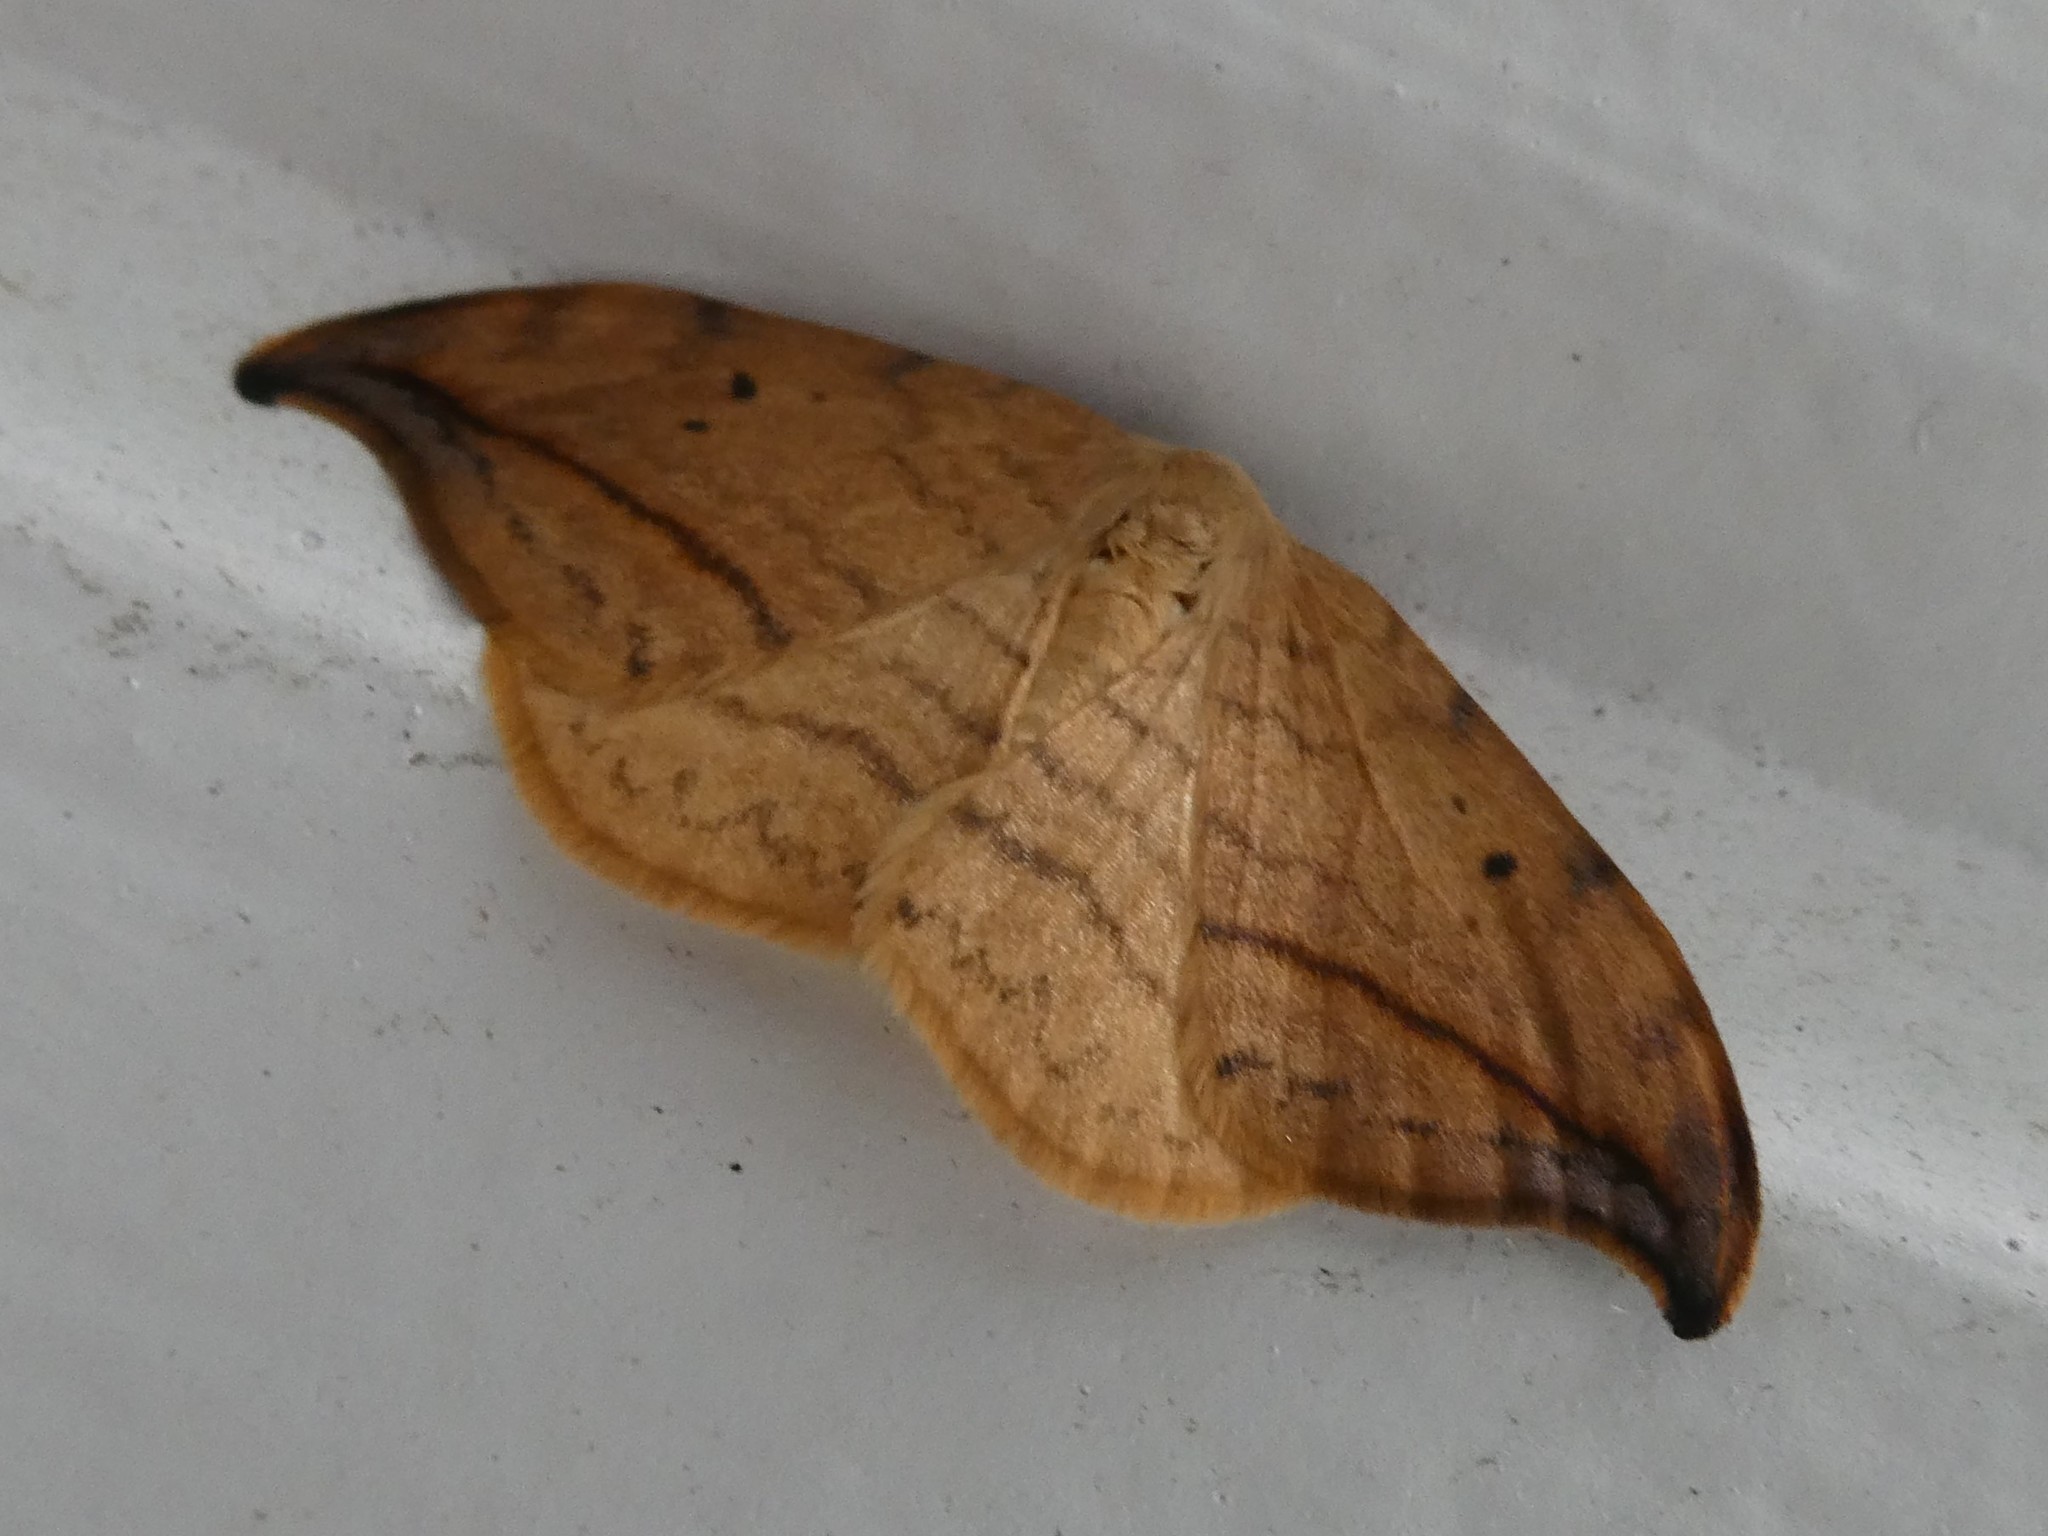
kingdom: Animalia
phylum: Arthropoda
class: Insecta
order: Lepidoptera
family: Drepanidae
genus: Drepana
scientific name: Drepana arcuata
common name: Arched hooktip moth
